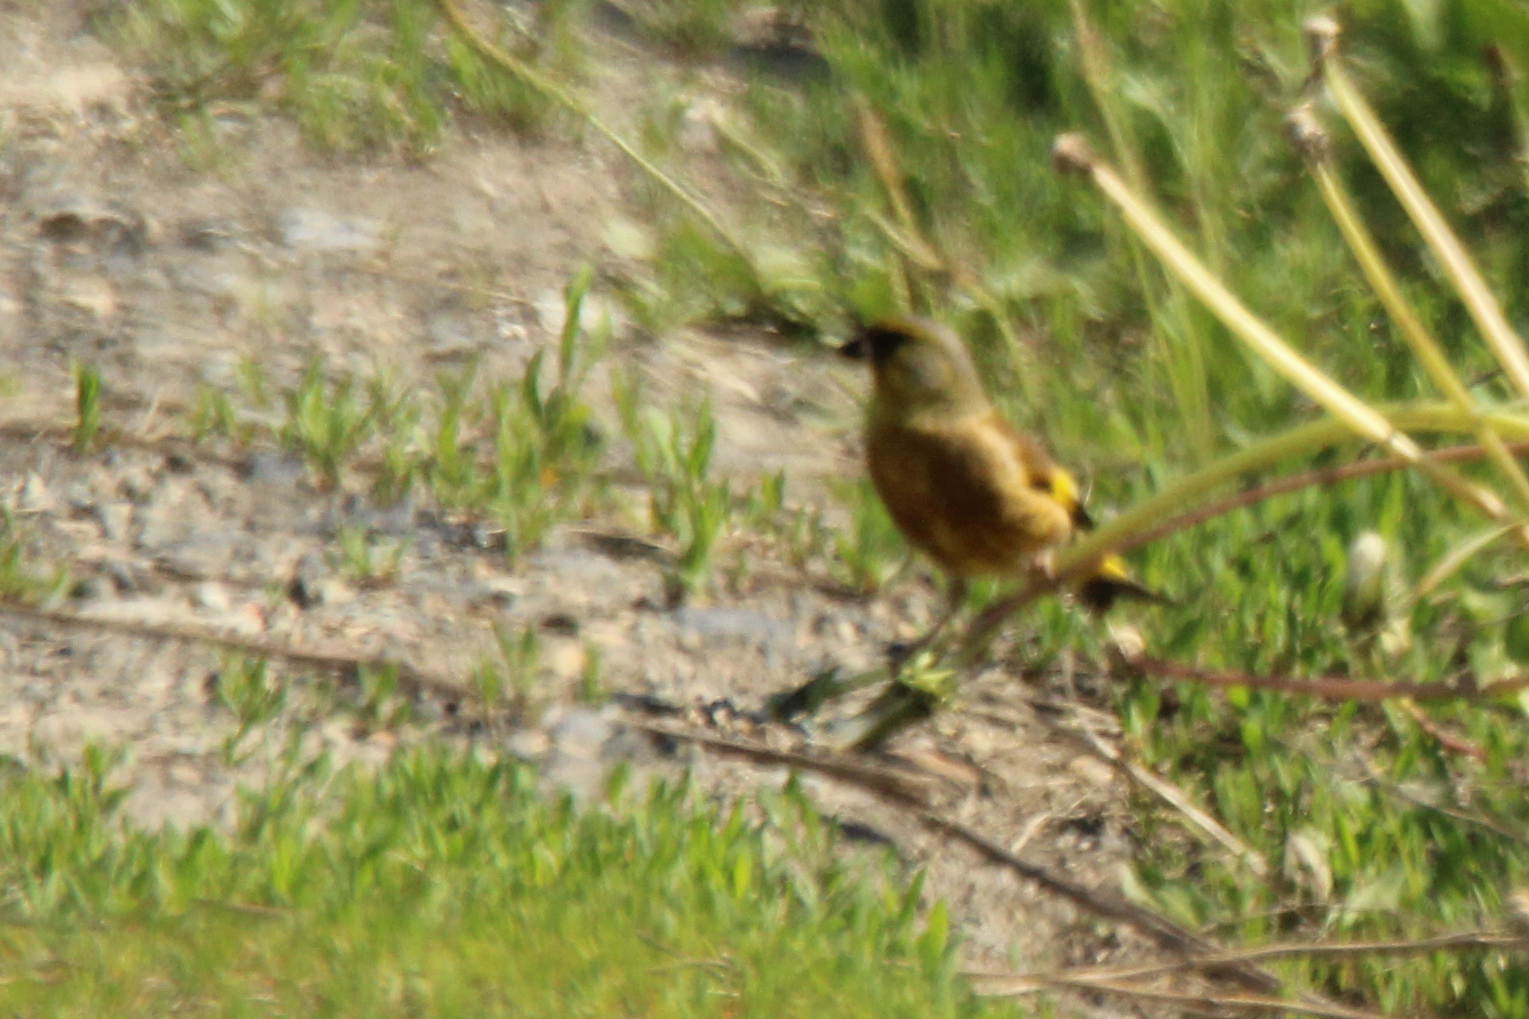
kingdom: Plantae
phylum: Tracheophyta
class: Liliopsida
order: Poales
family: Poaceae
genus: Chloris
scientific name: Chloris sinica
